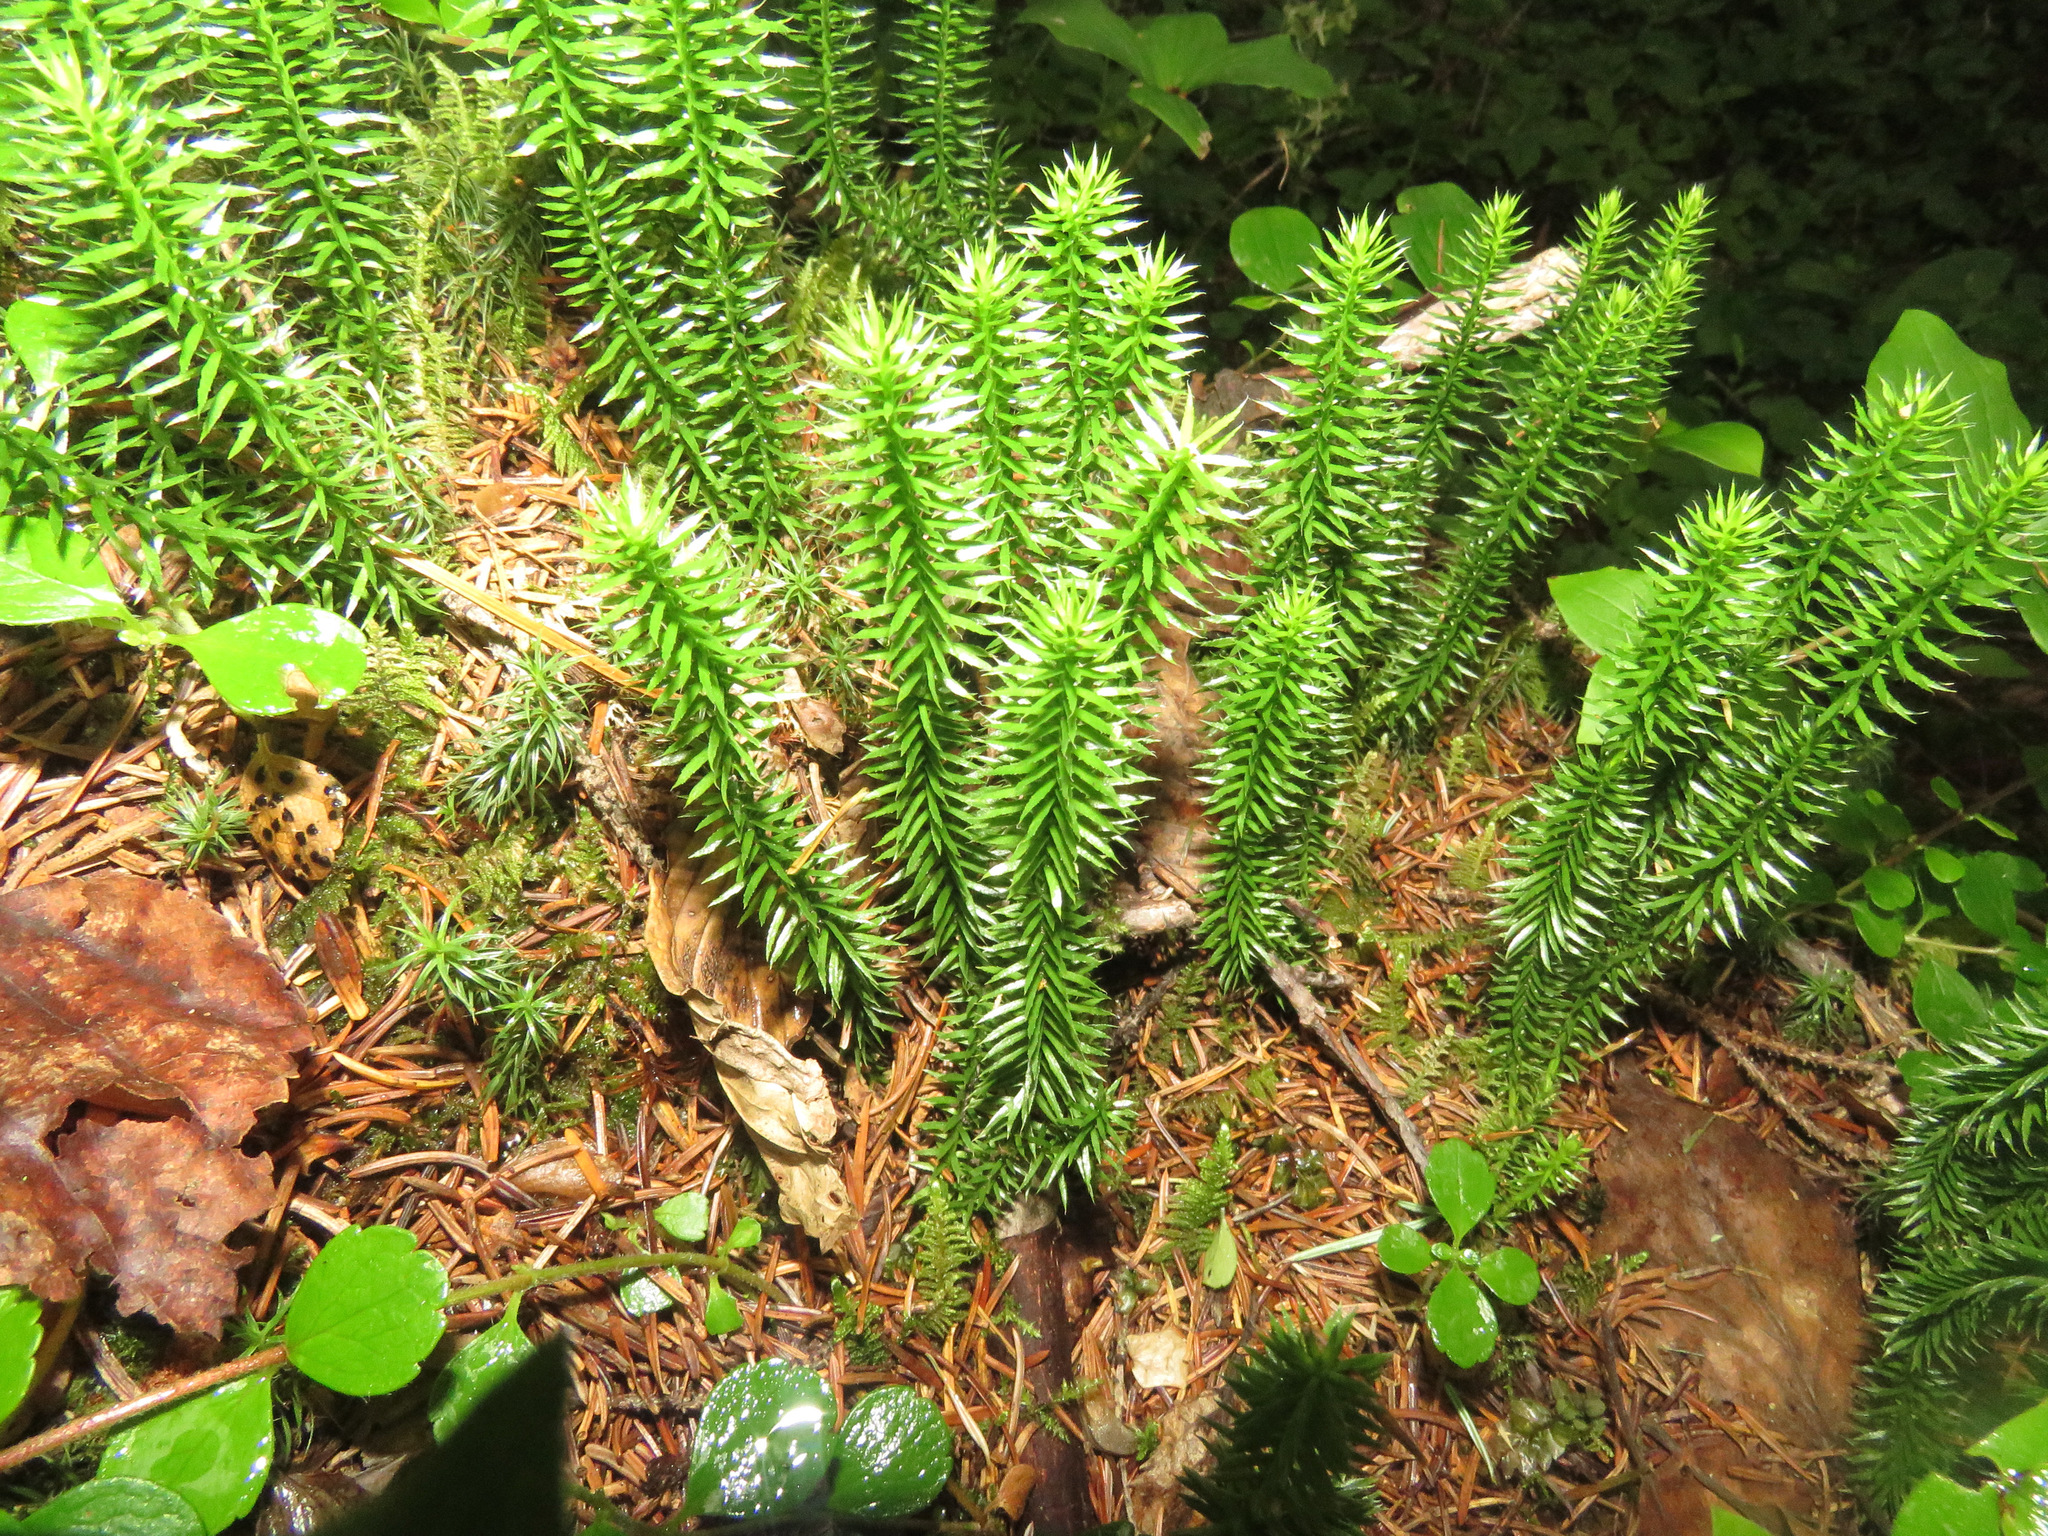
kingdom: Plantae
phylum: Tracheophyta
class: Lycopodiopsida
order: Lycopodiales
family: Lycopodiaceae
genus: Spinulum
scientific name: Spinulum annotinum
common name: Interrupted club-moss
